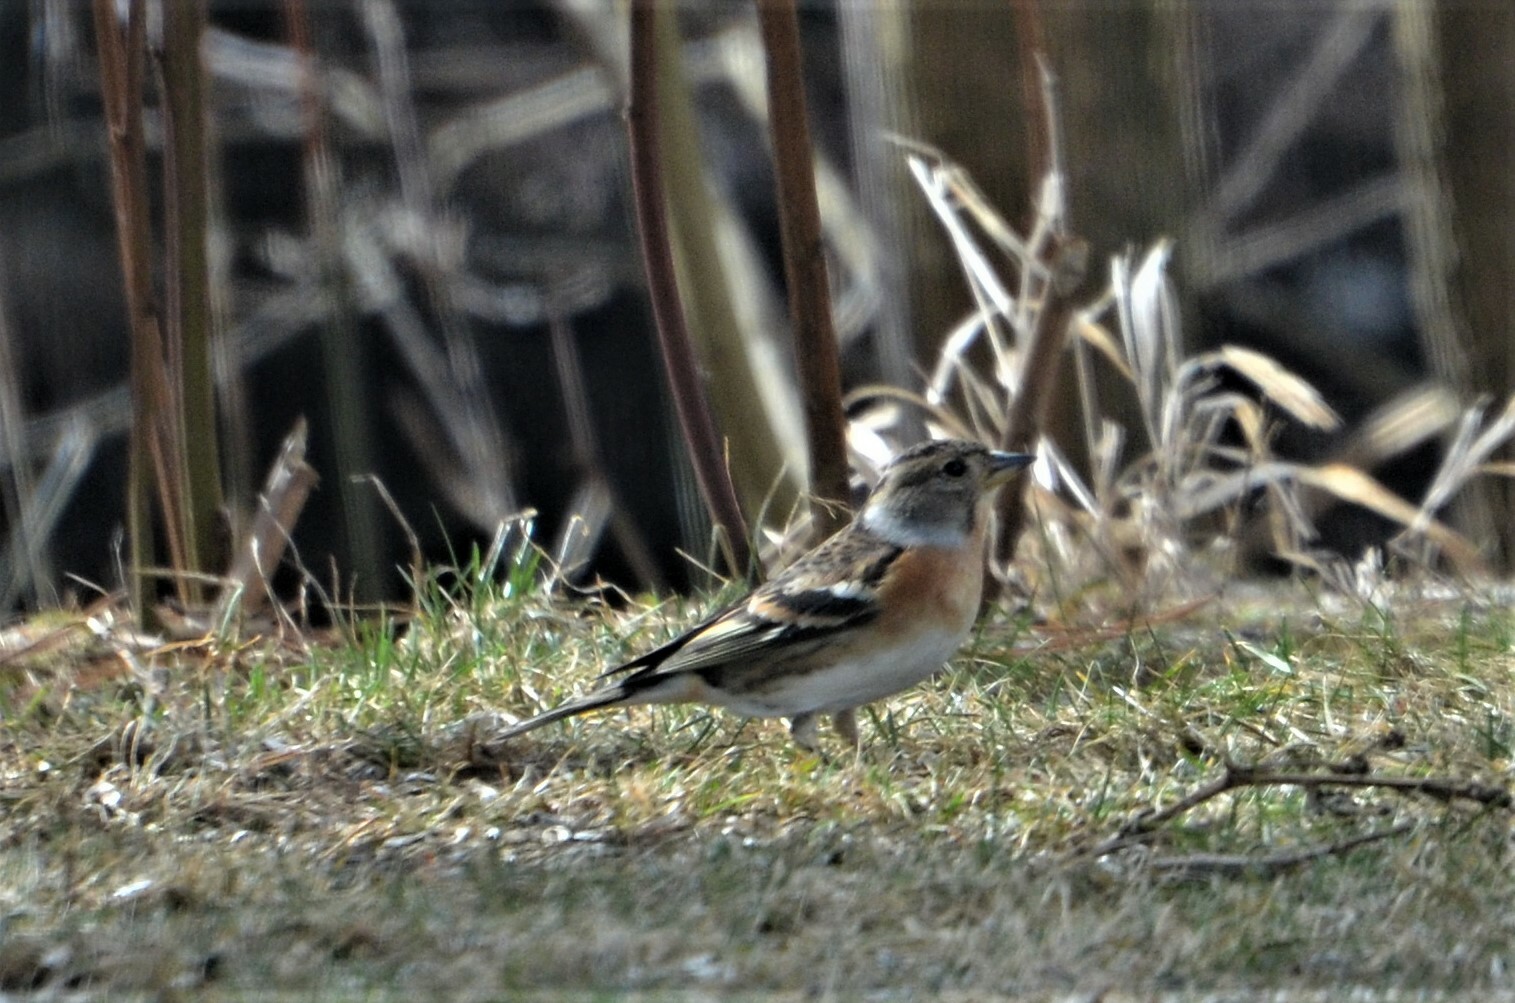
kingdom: Animalia
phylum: Chordata
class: Aves
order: Passeriformes
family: Fringillidae
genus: Fringilla
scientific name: Fringilla montifringilla
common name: Brambling
